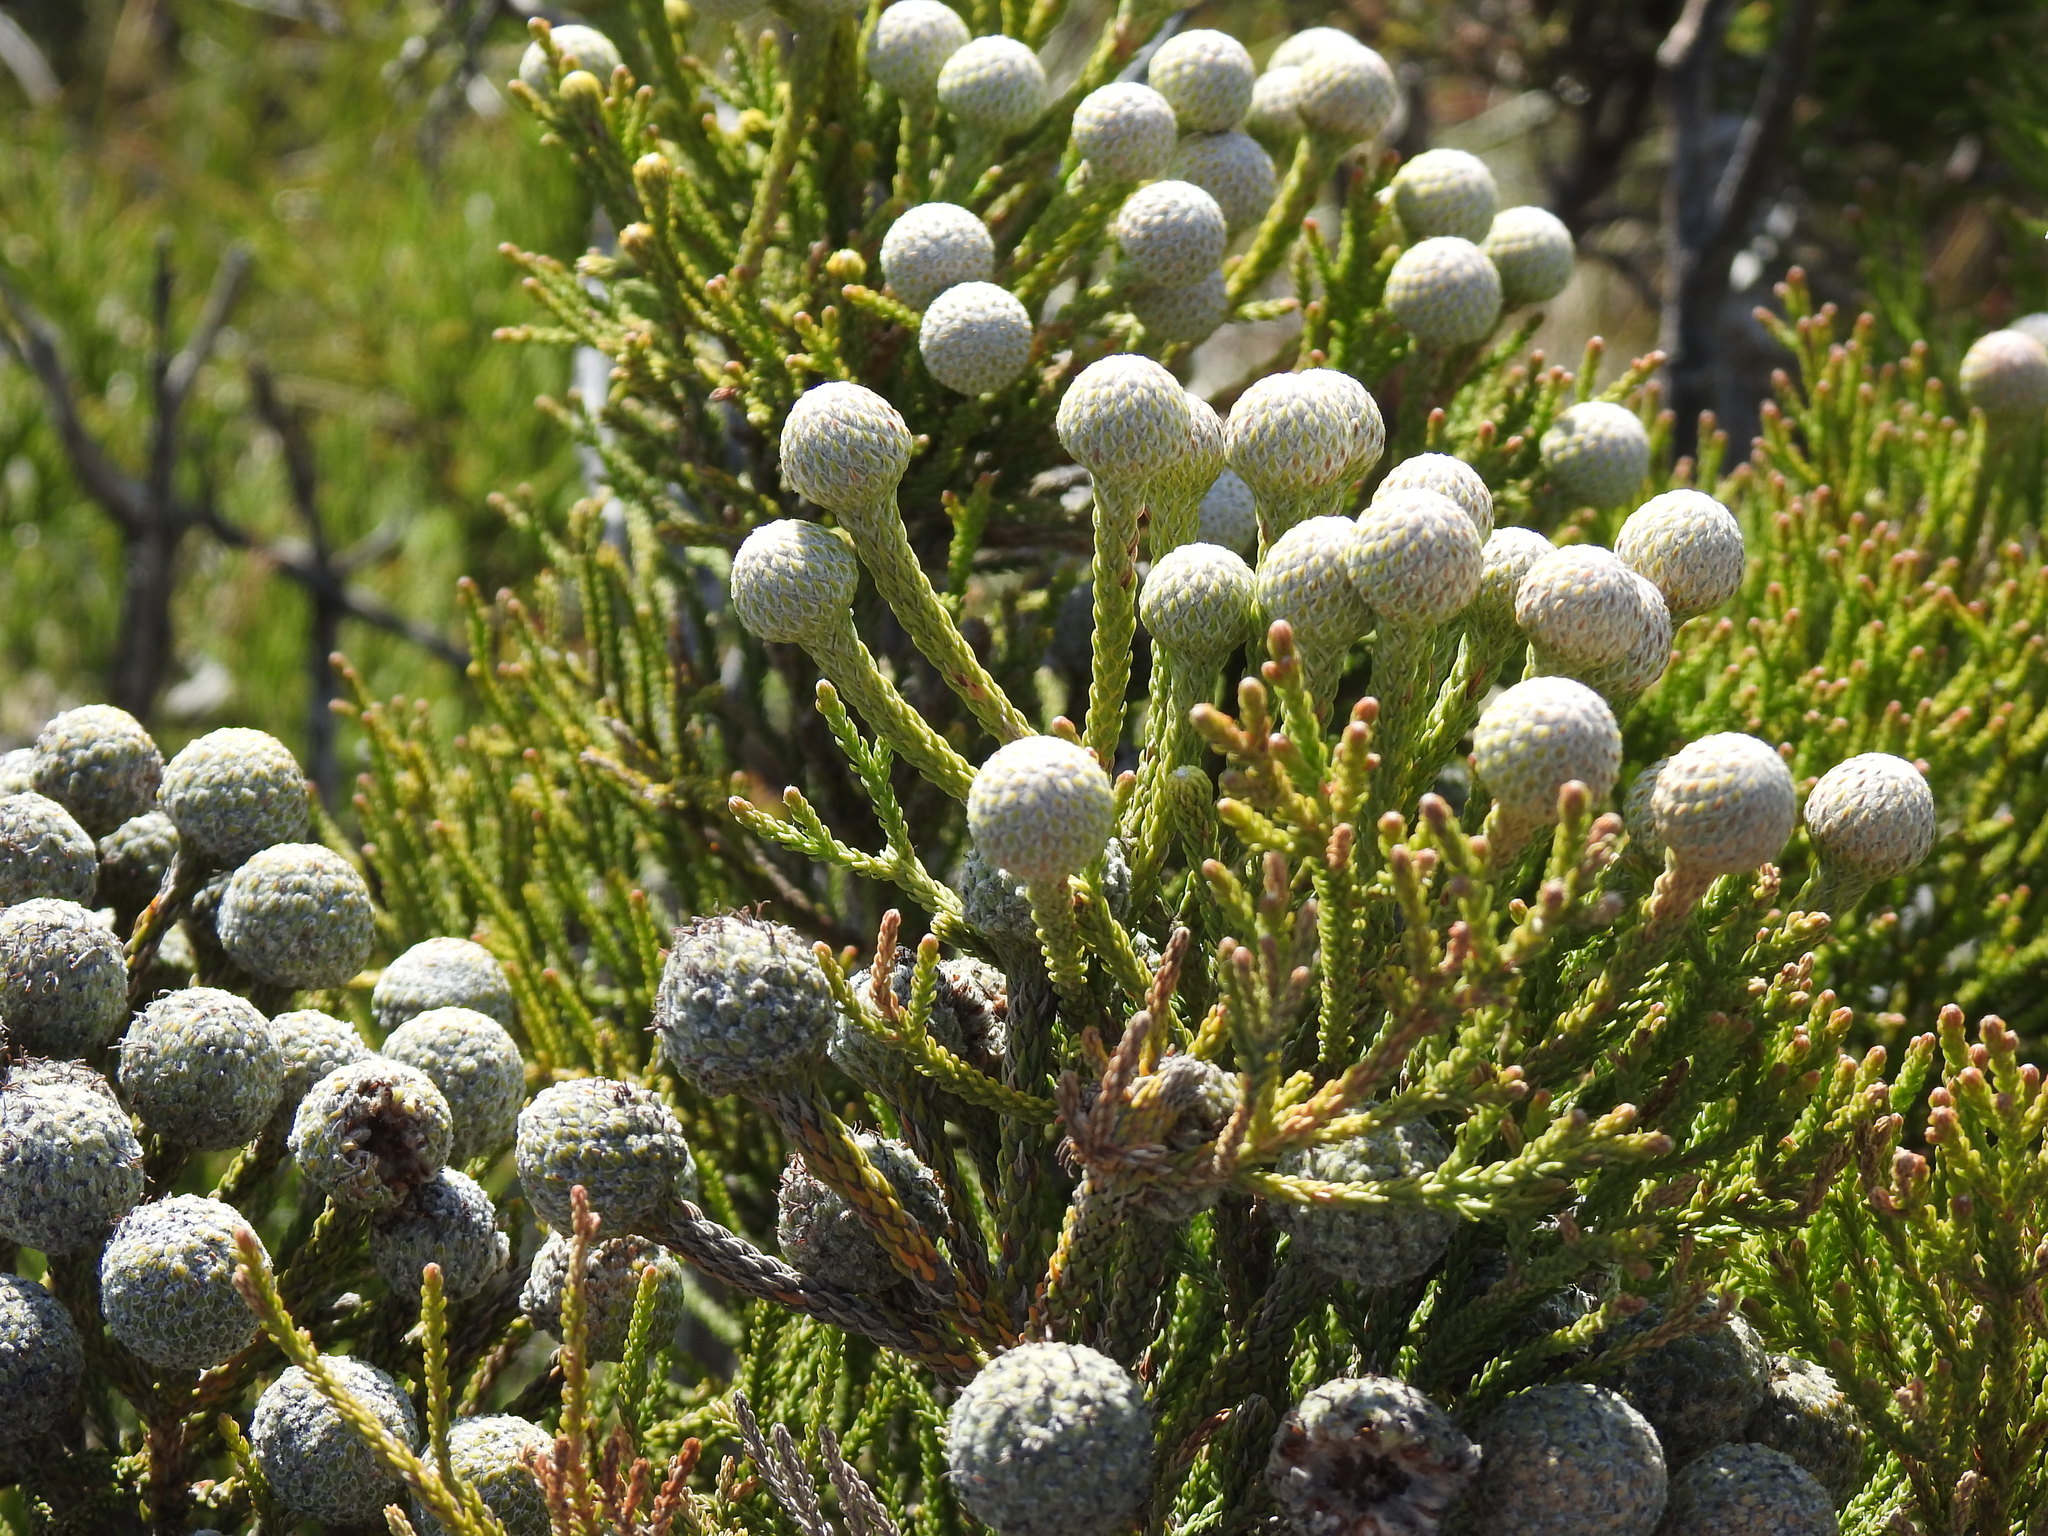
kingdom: Plantae
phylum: Tracheophyta
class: Magnoliopsida
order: Bruniales
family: Bruniaceae
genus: Brunia
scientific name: Brunia noduliflora
